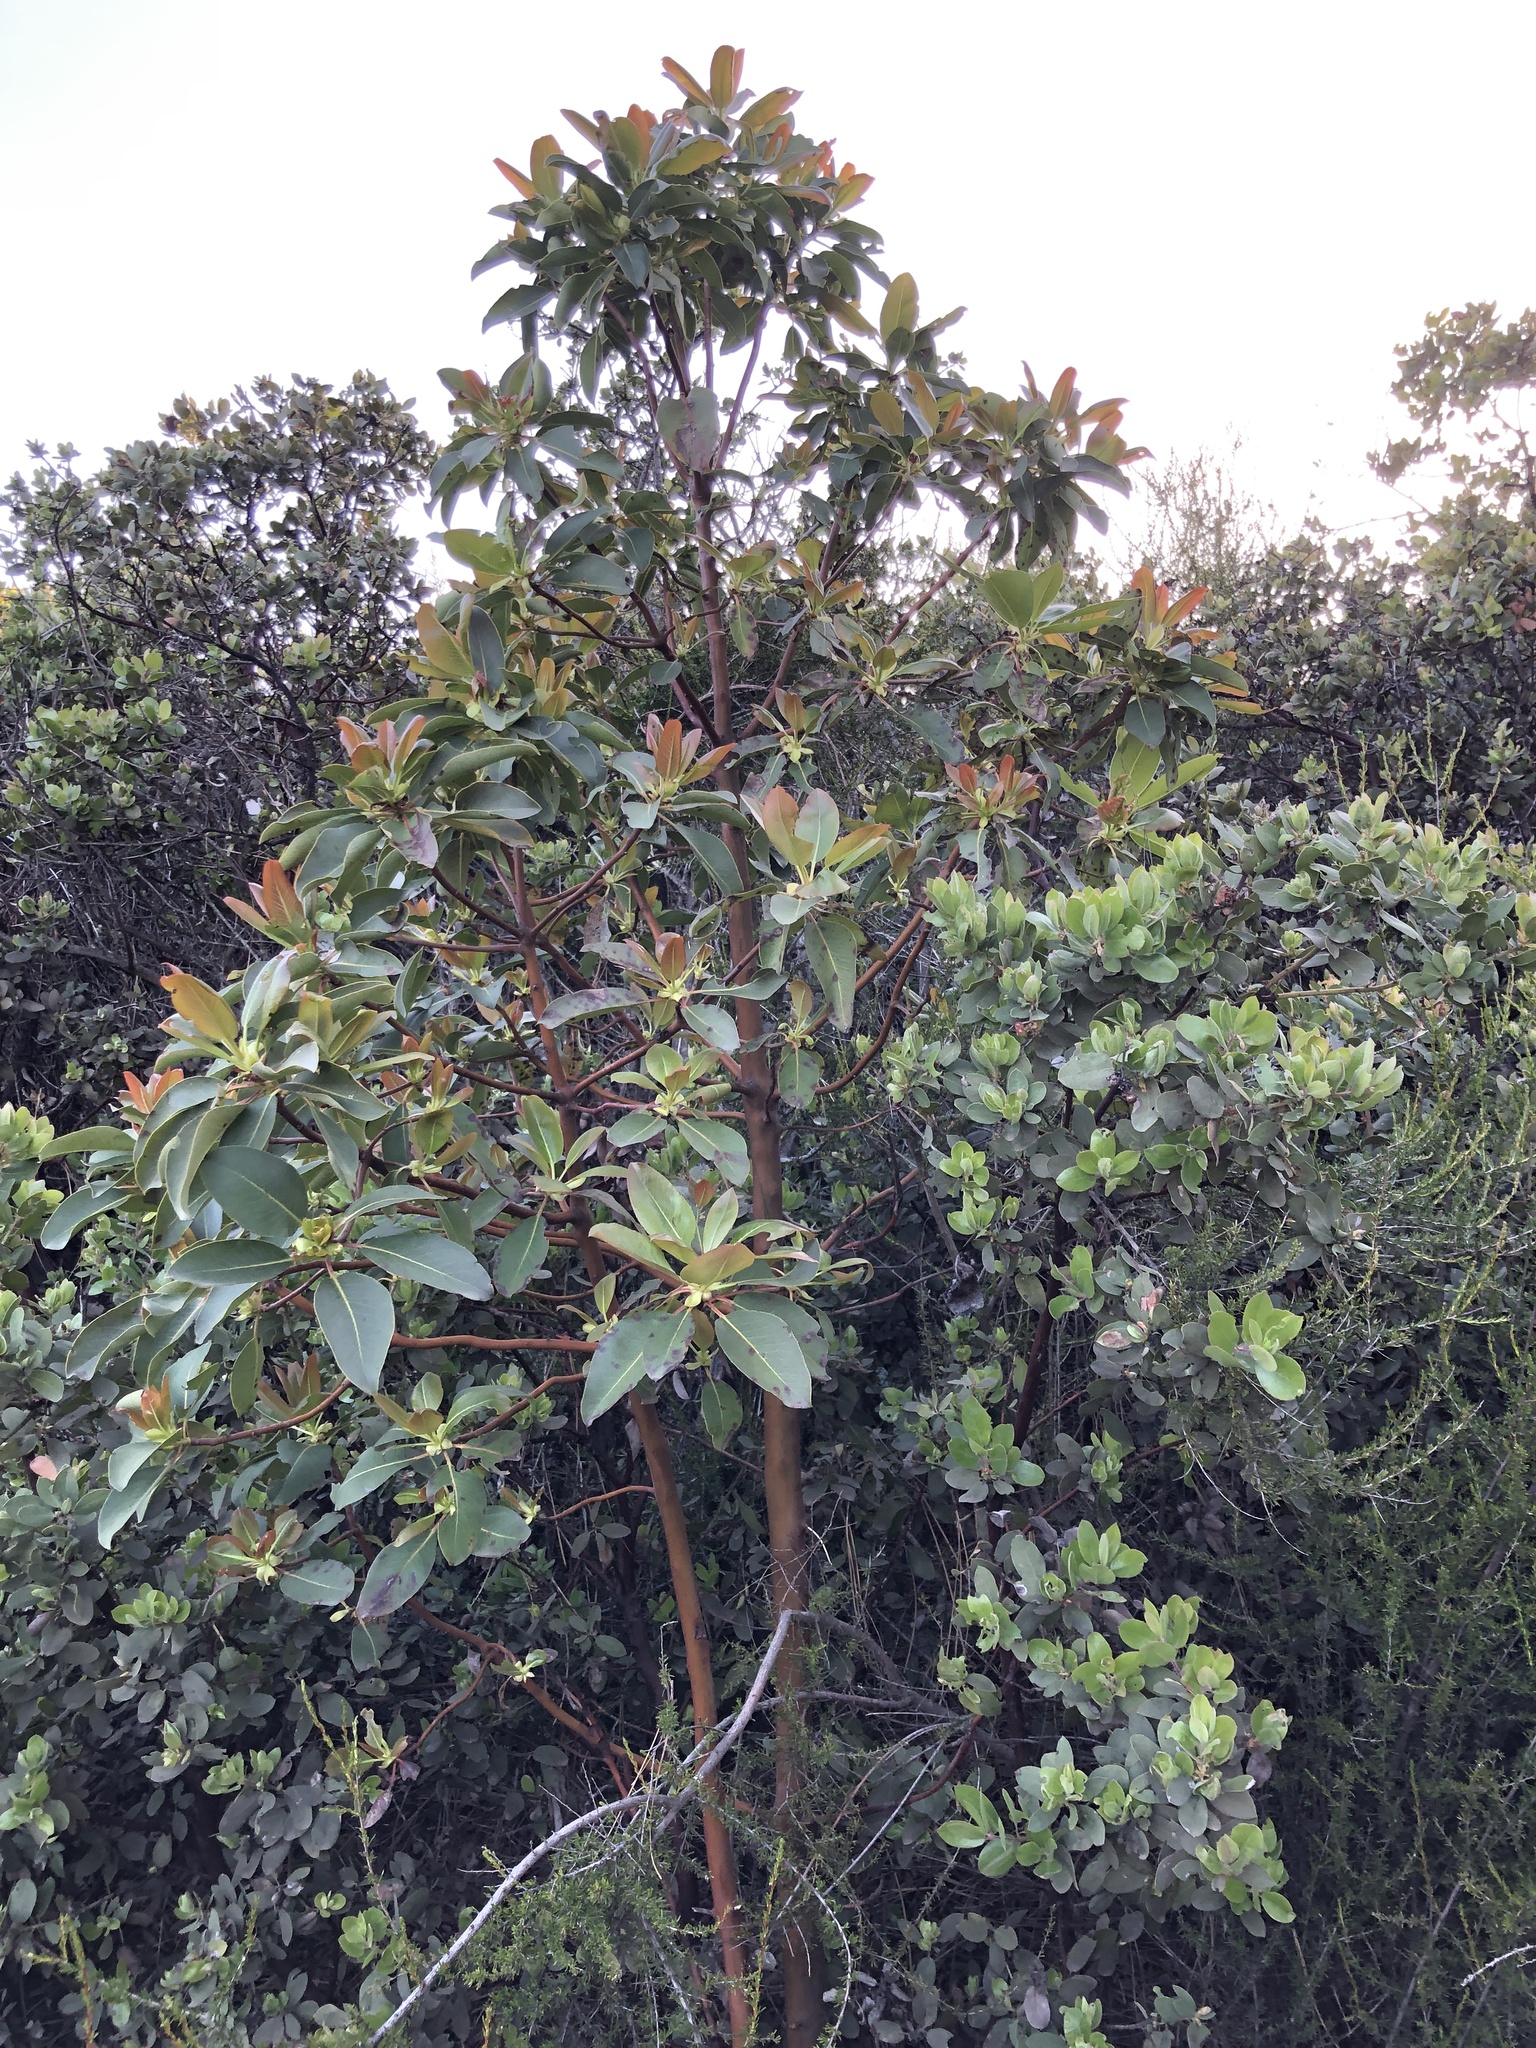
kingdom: Plantae
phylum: Tracheophyta
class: Magnoliopsida
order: Ericales
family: Ericaceae
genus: Arbutus
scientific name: Arbutus menziesii
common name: Pacific madrone
